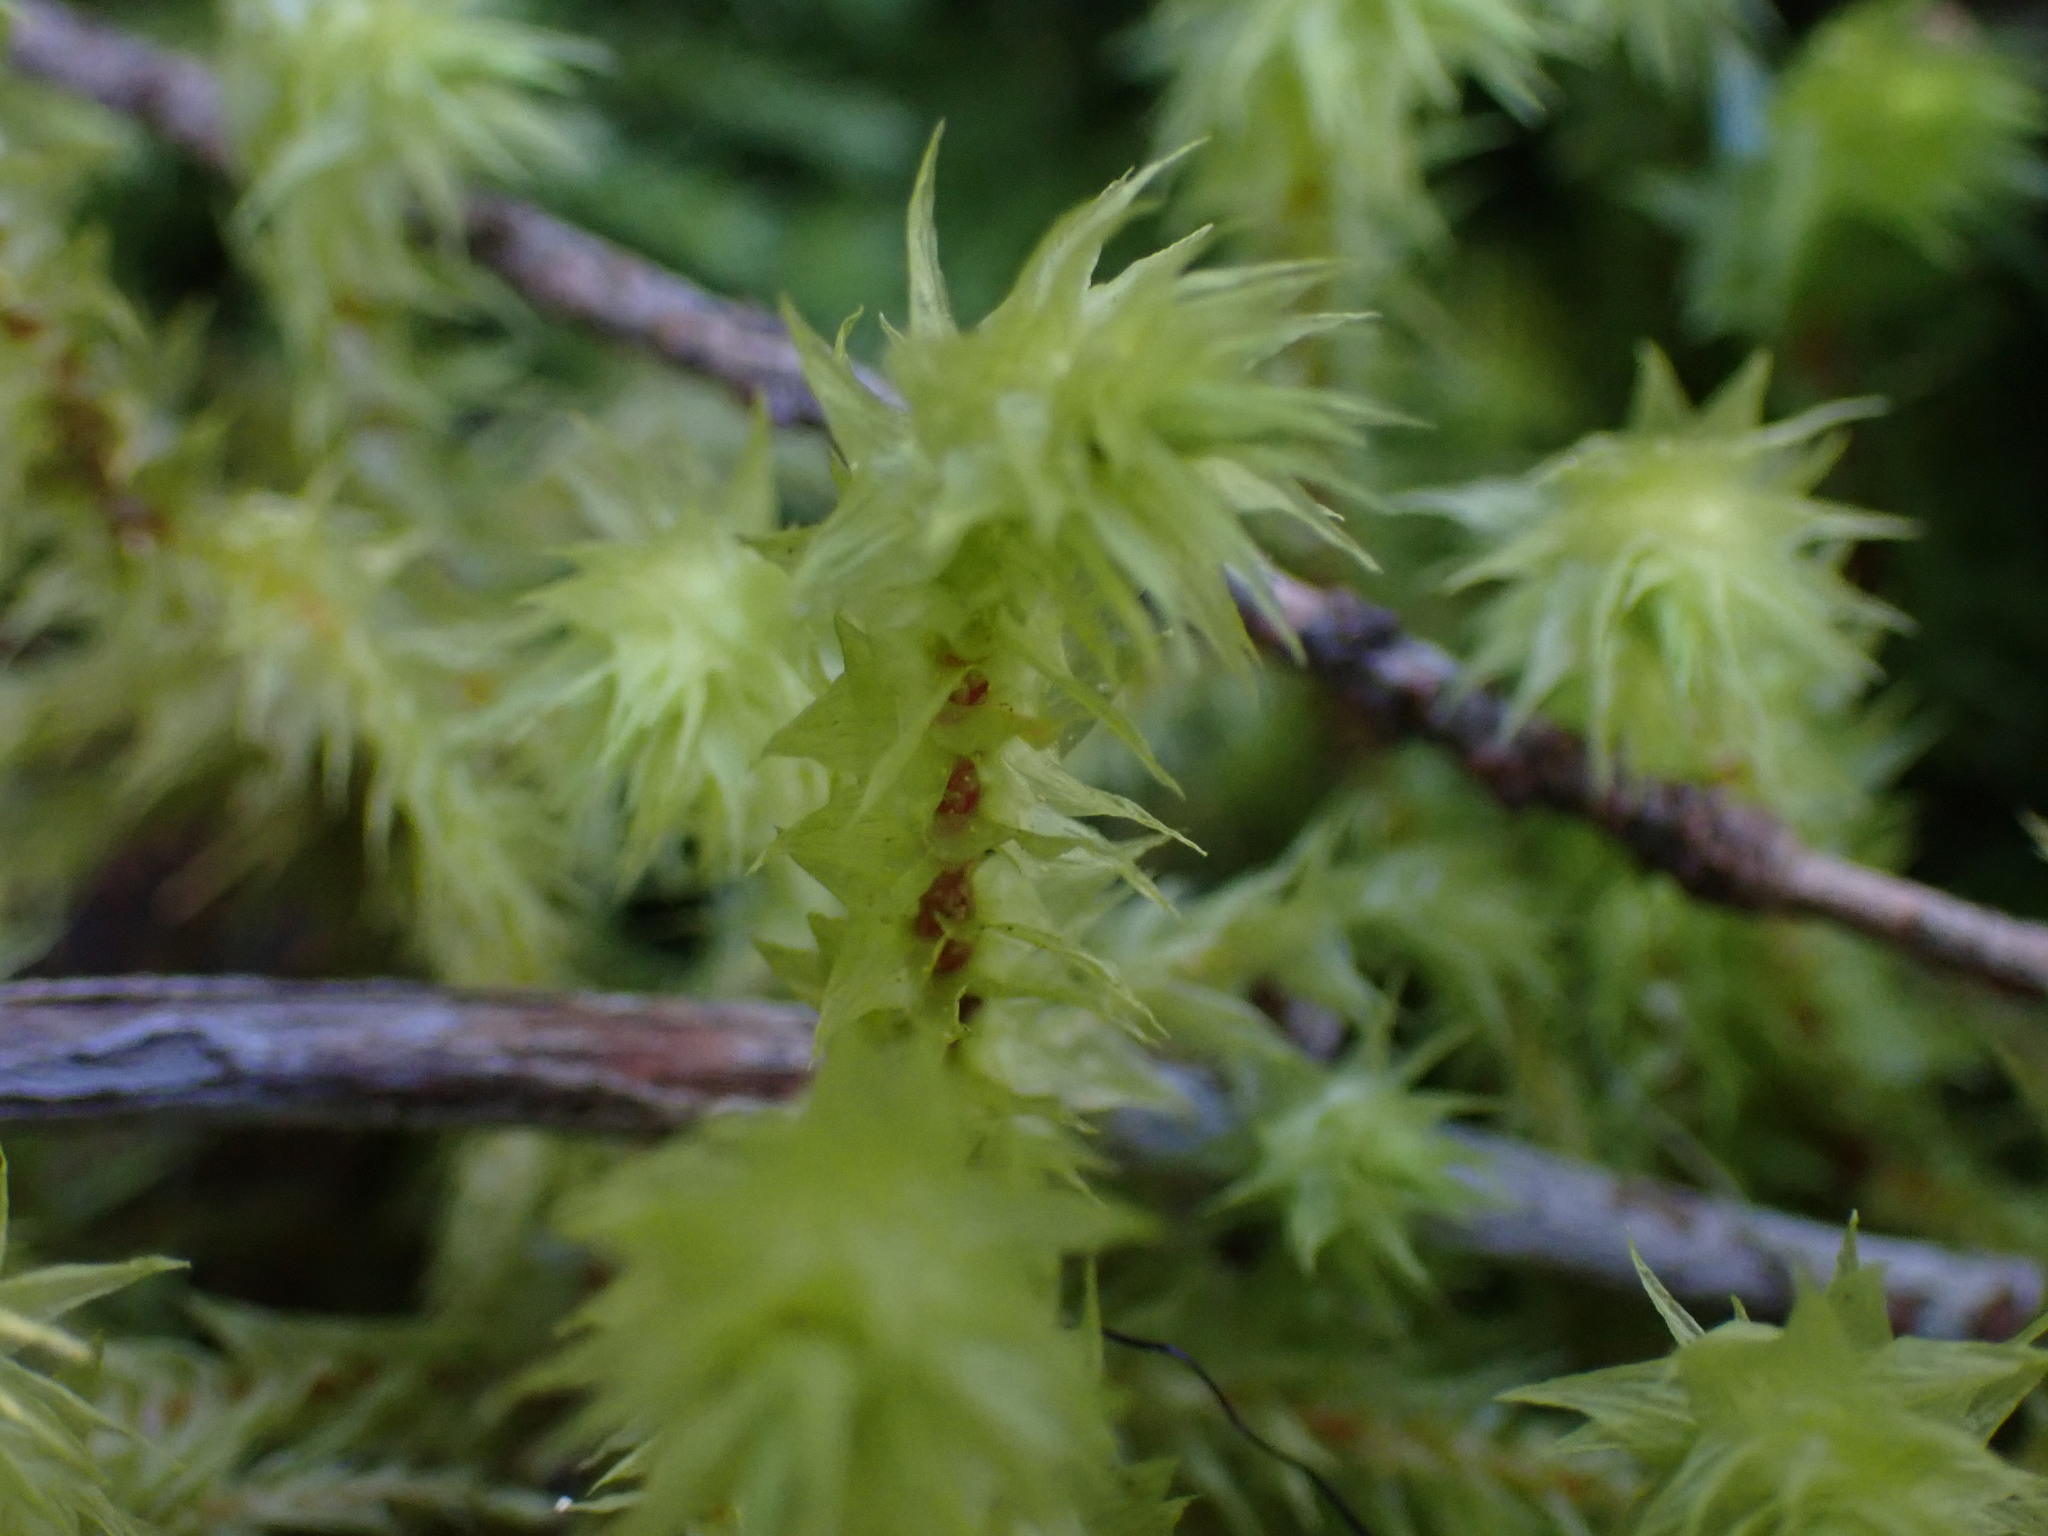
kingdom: Plantae
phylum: Bryophyta
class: Bryopsida
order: Hypnales
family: Hylocomiaceae
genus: Hylocomiadelphus
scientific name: Hylocomiadelphus triquetrus
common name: Rough goose neck moss
